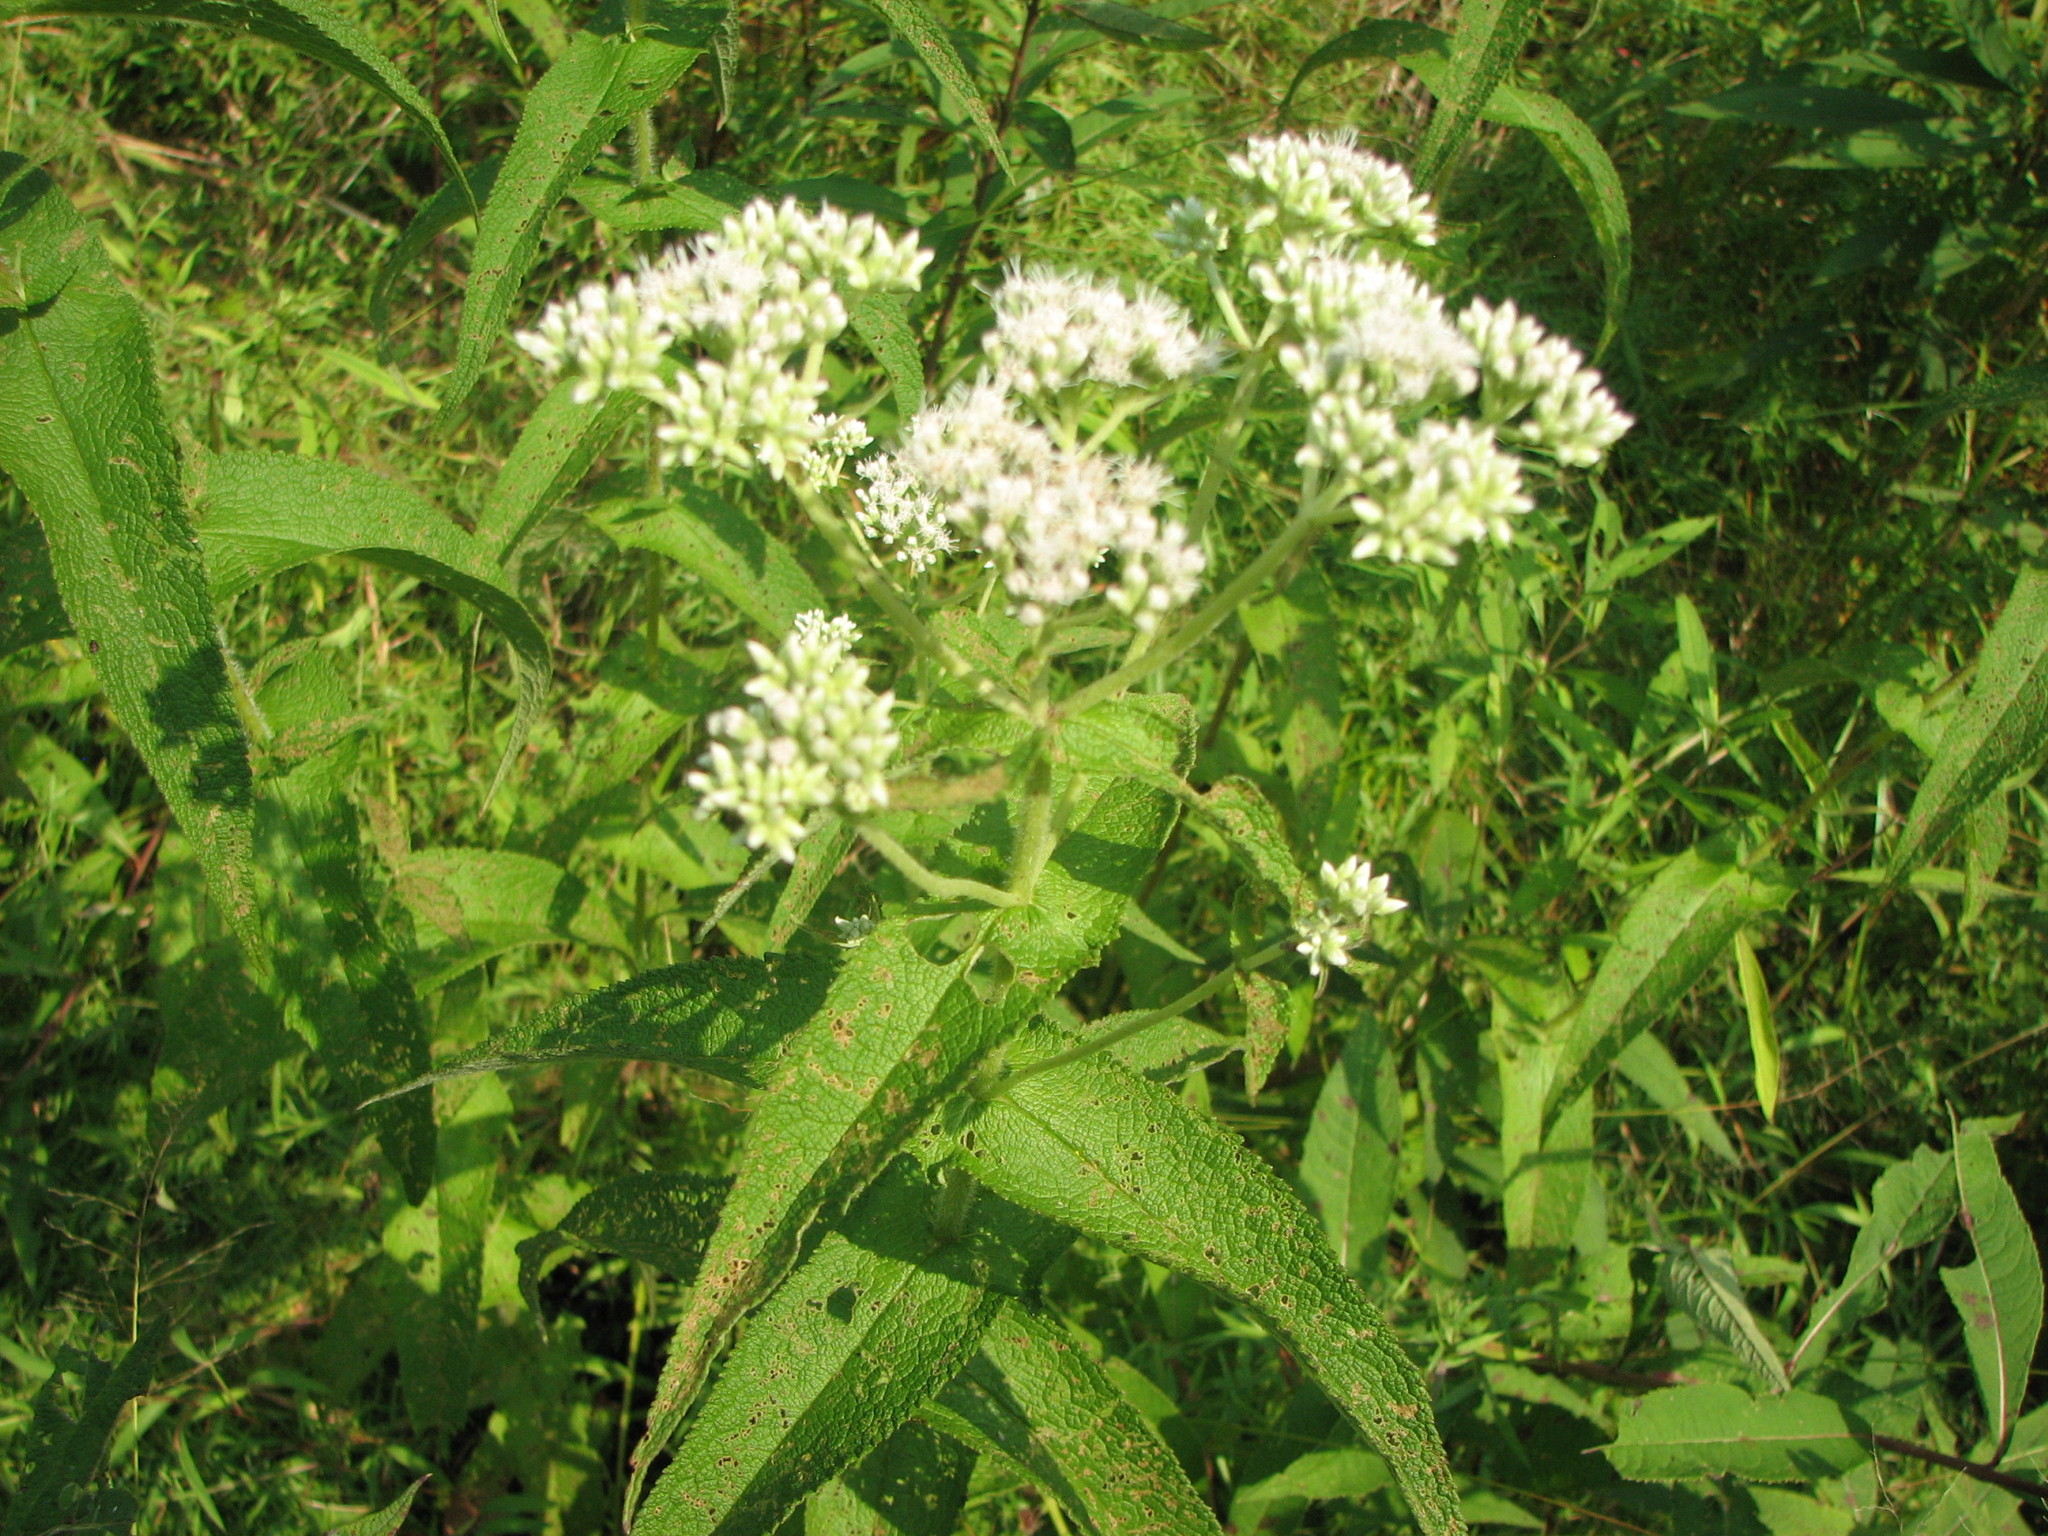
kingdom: Plantae
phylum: Tracheophyta
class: Magnoliopsida
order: Asterales
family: Asteraceae
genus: Eupatorium
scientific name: Eupatorium perfoliatum
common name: Boneset
